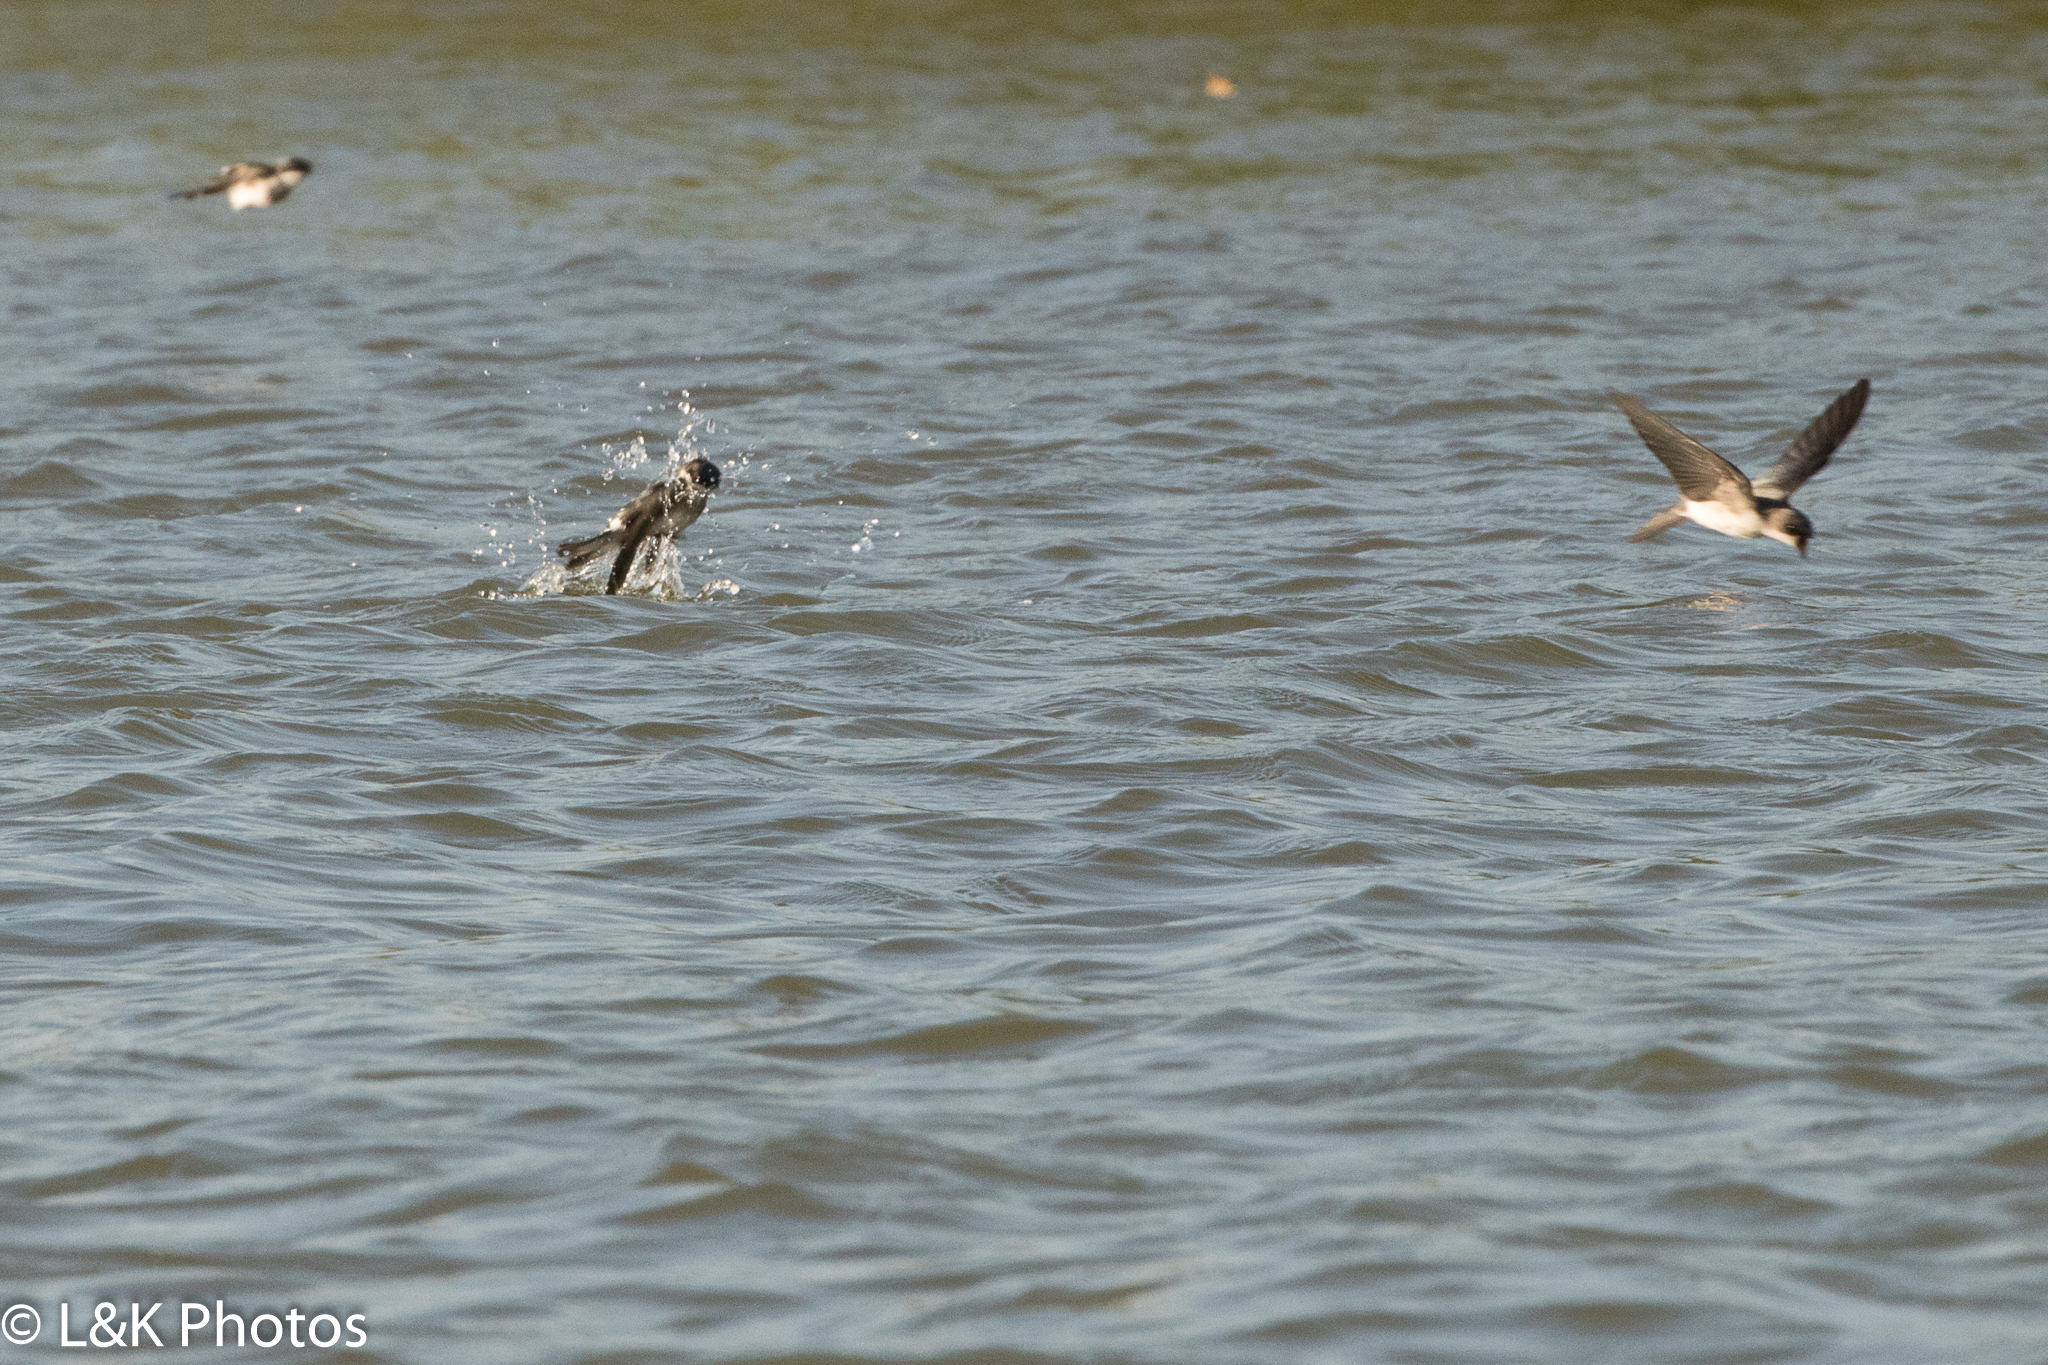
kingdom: Animalia
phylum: Chordata
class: Aves
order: Passeriformes
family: Hirundinidae
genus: Tachycineta
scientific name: Tachycineta albilinea
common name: Mangrove swallow
